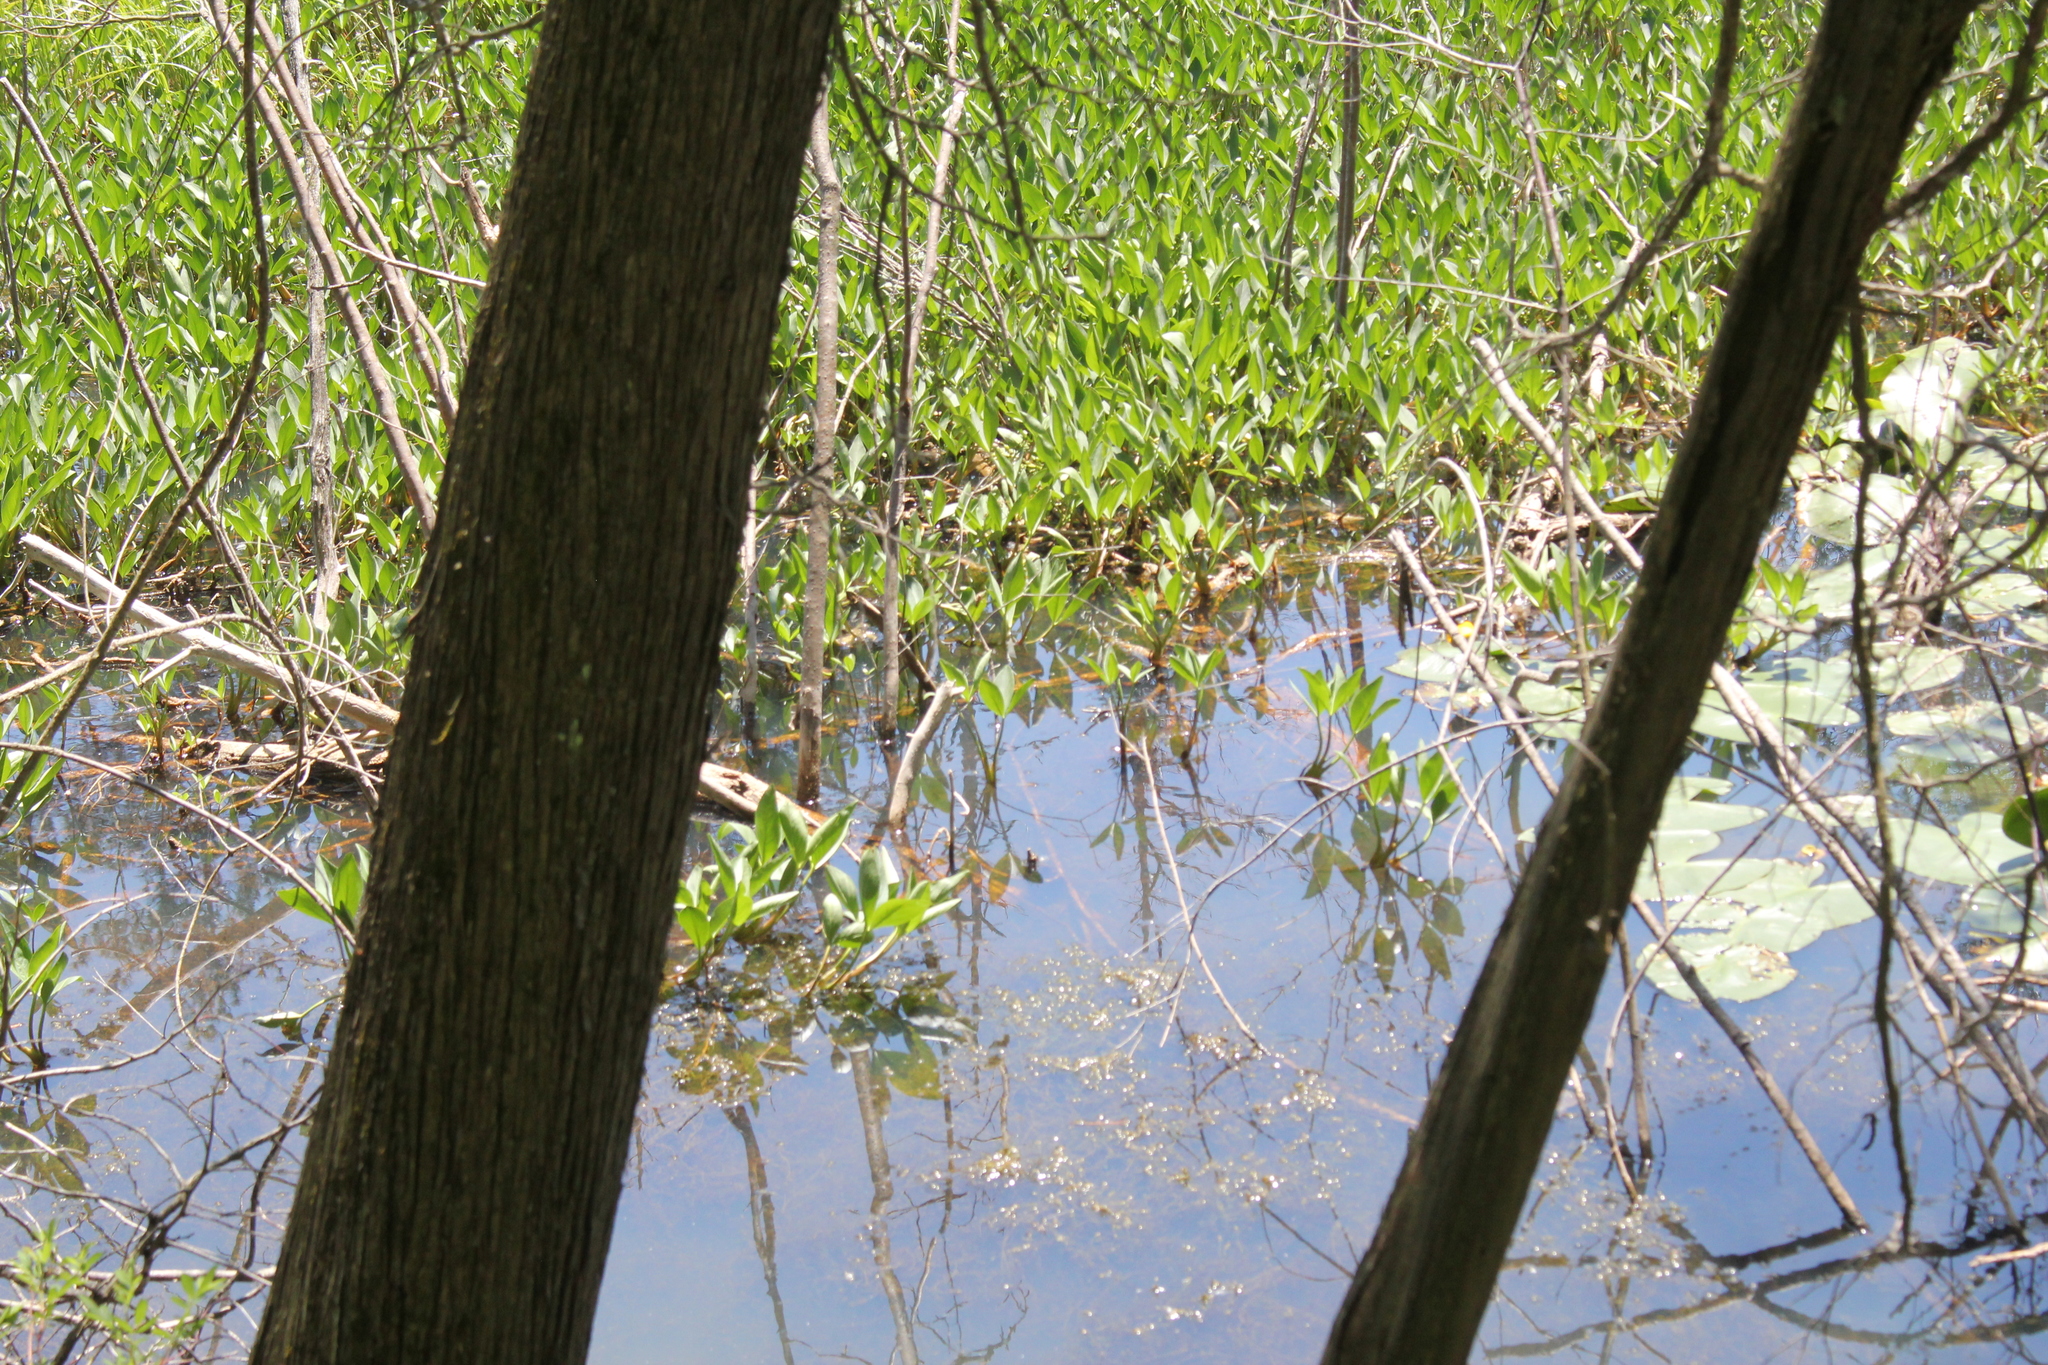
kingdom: Plantae
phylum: Tracheophyta
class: Magnoliopsida
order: Asterales
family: Menyanthaceae
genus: Menyanthes
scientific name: Menyanthes trifoliata
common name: Bogbean
